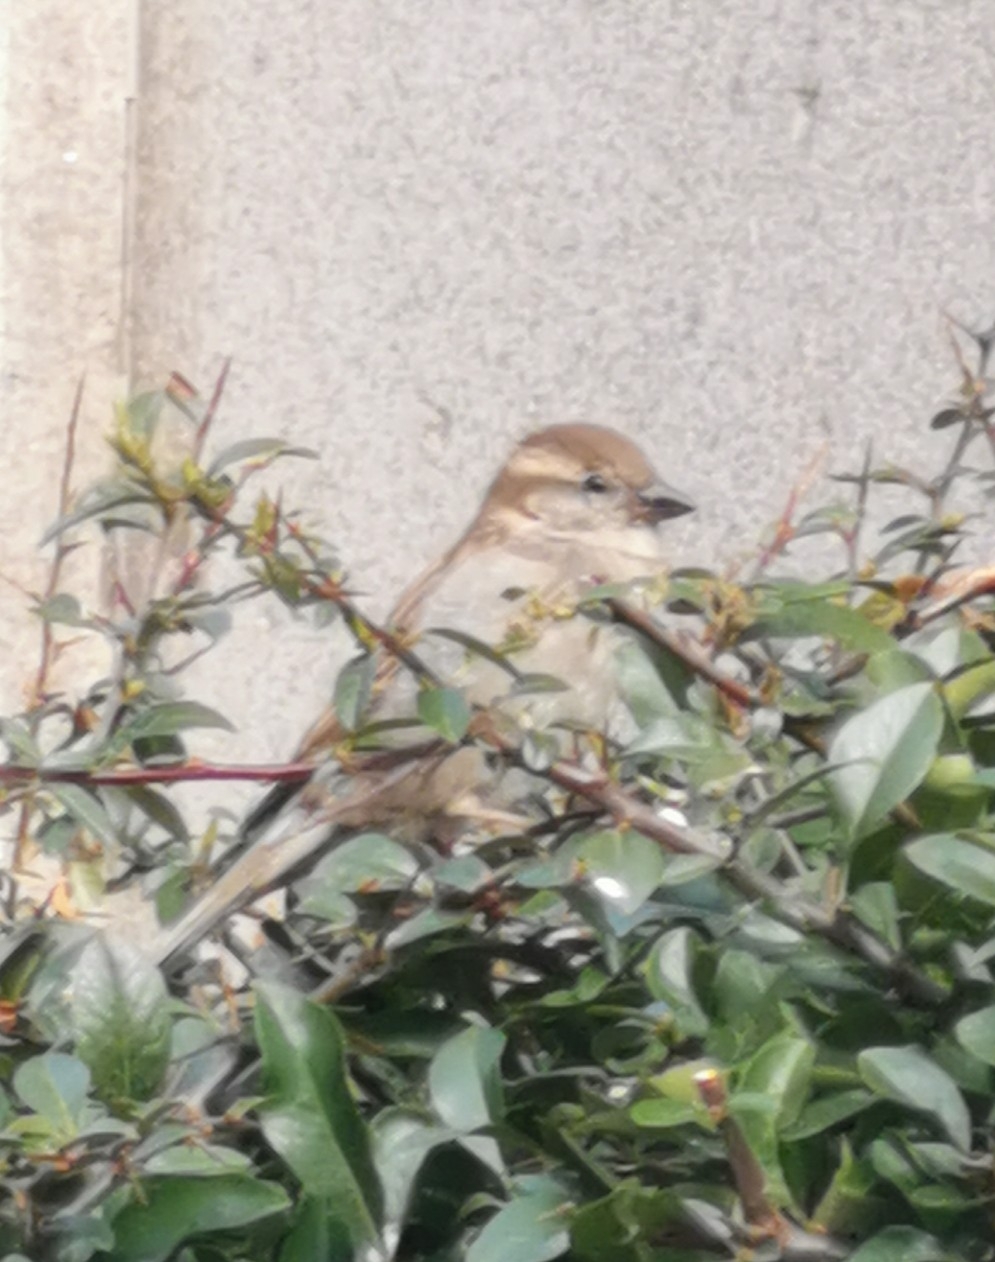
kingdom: Animalia
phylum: Chordata
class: Aves
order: Passeriformes
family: Passeridae
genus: Passer
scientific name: Passer domesticus
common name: House sparrow
